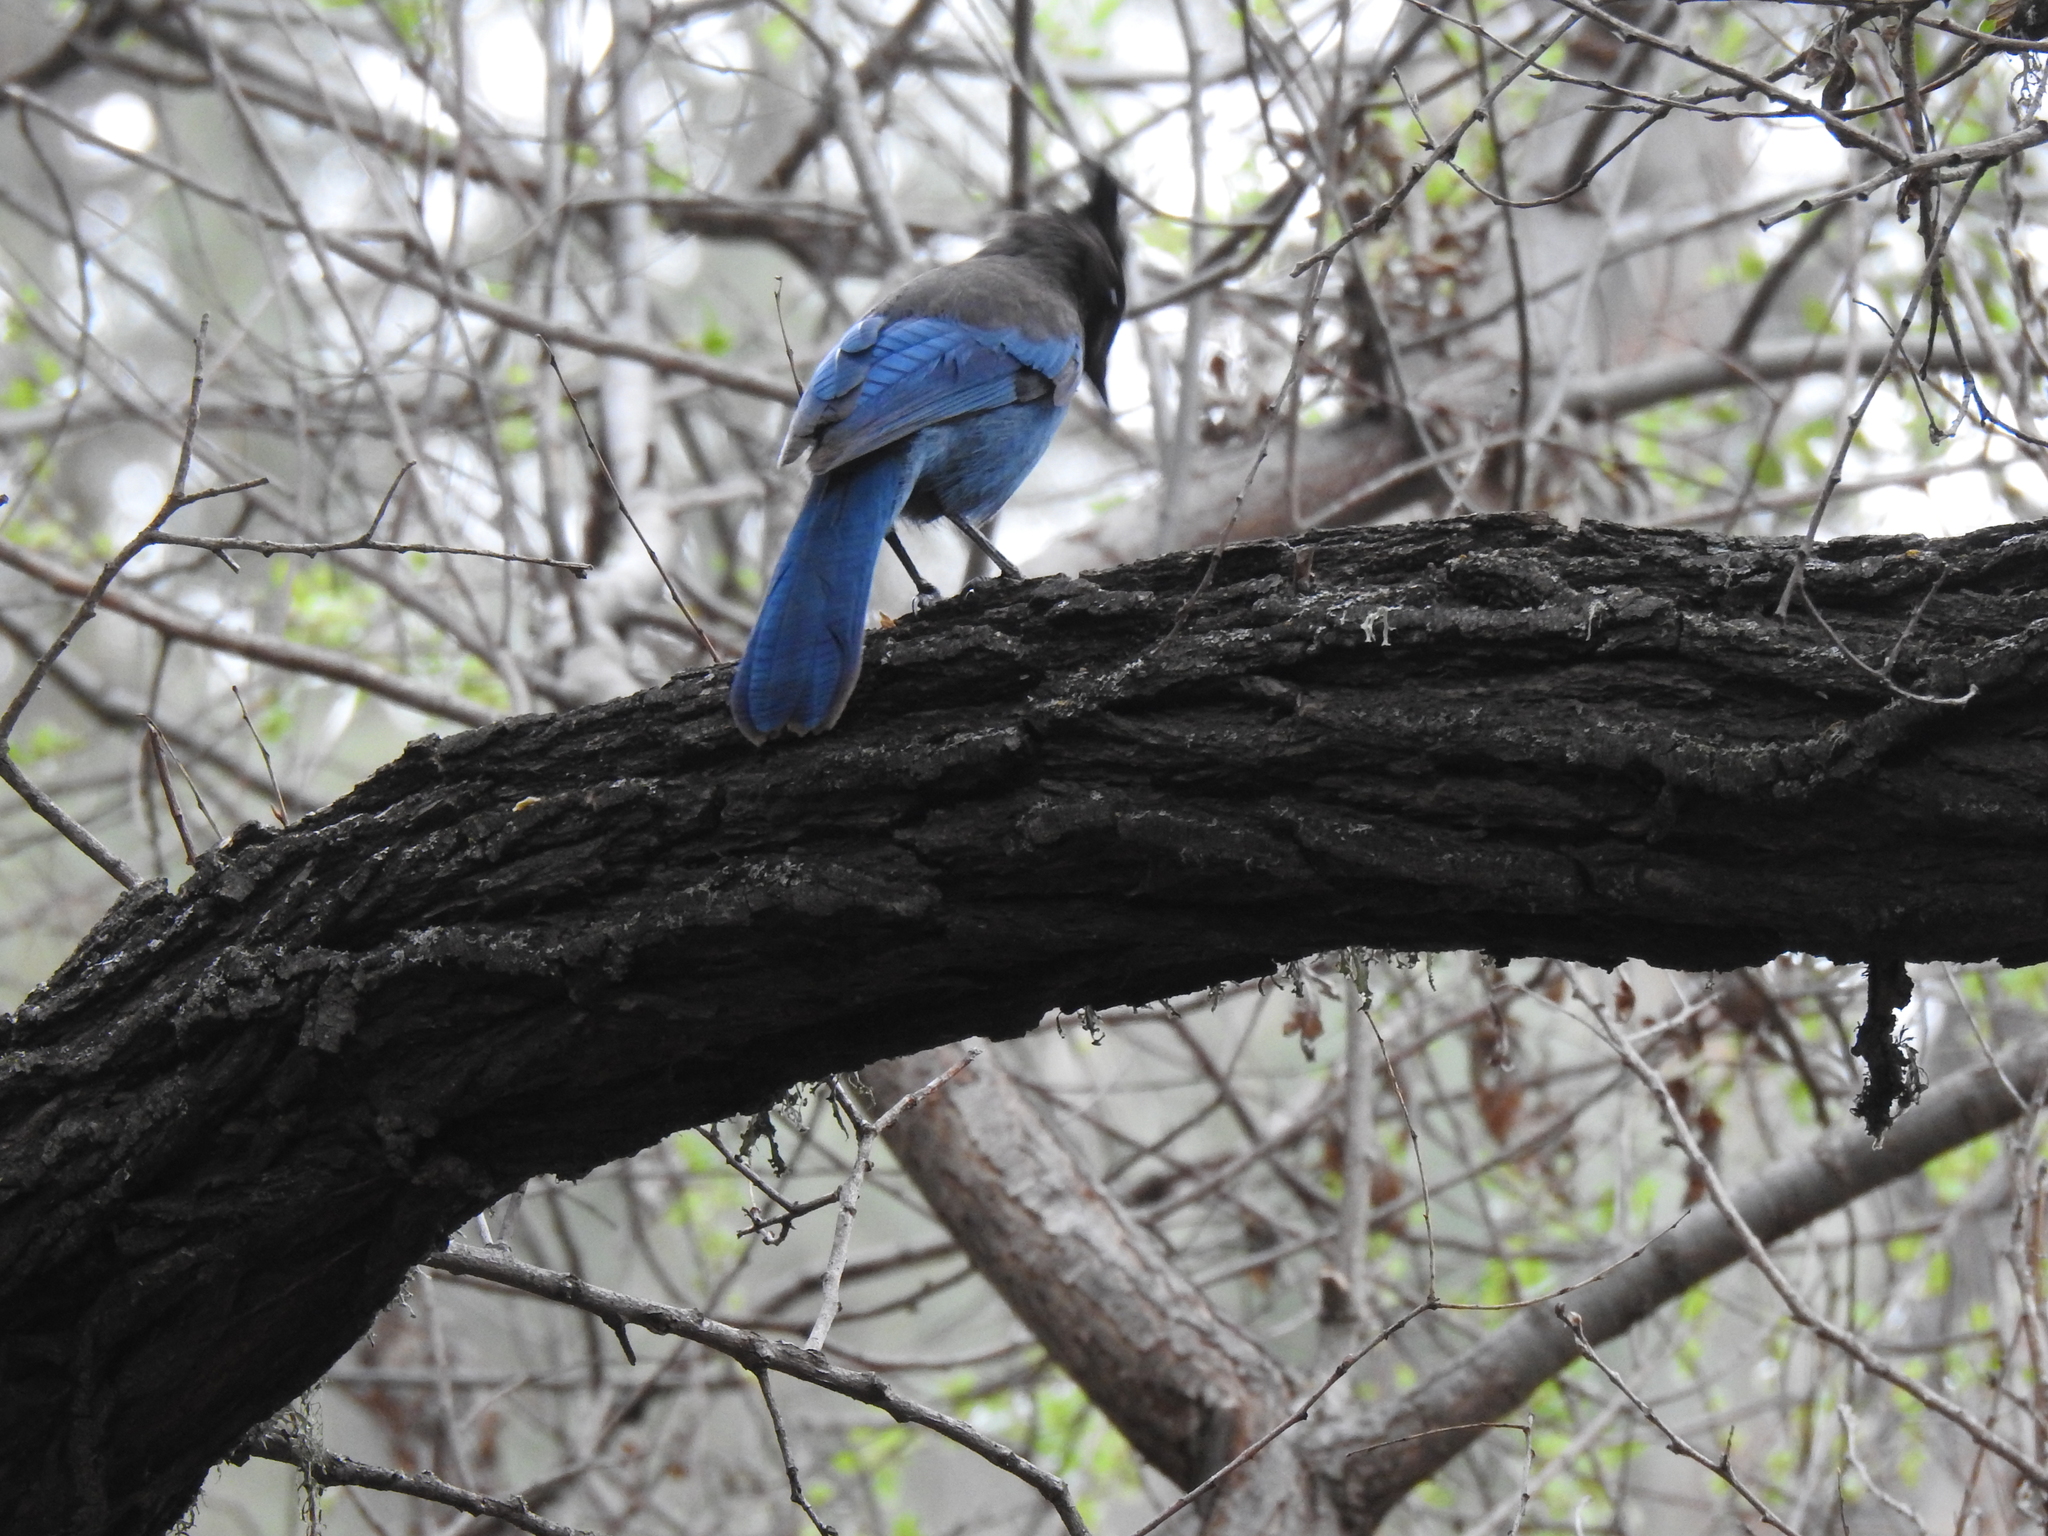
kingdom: Animalia
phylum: Chordata
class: Aves
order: Passeriformes
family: Corvidae
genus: Cyanocitta
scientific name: Cyanocitta stelleri
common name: Steller's jay
